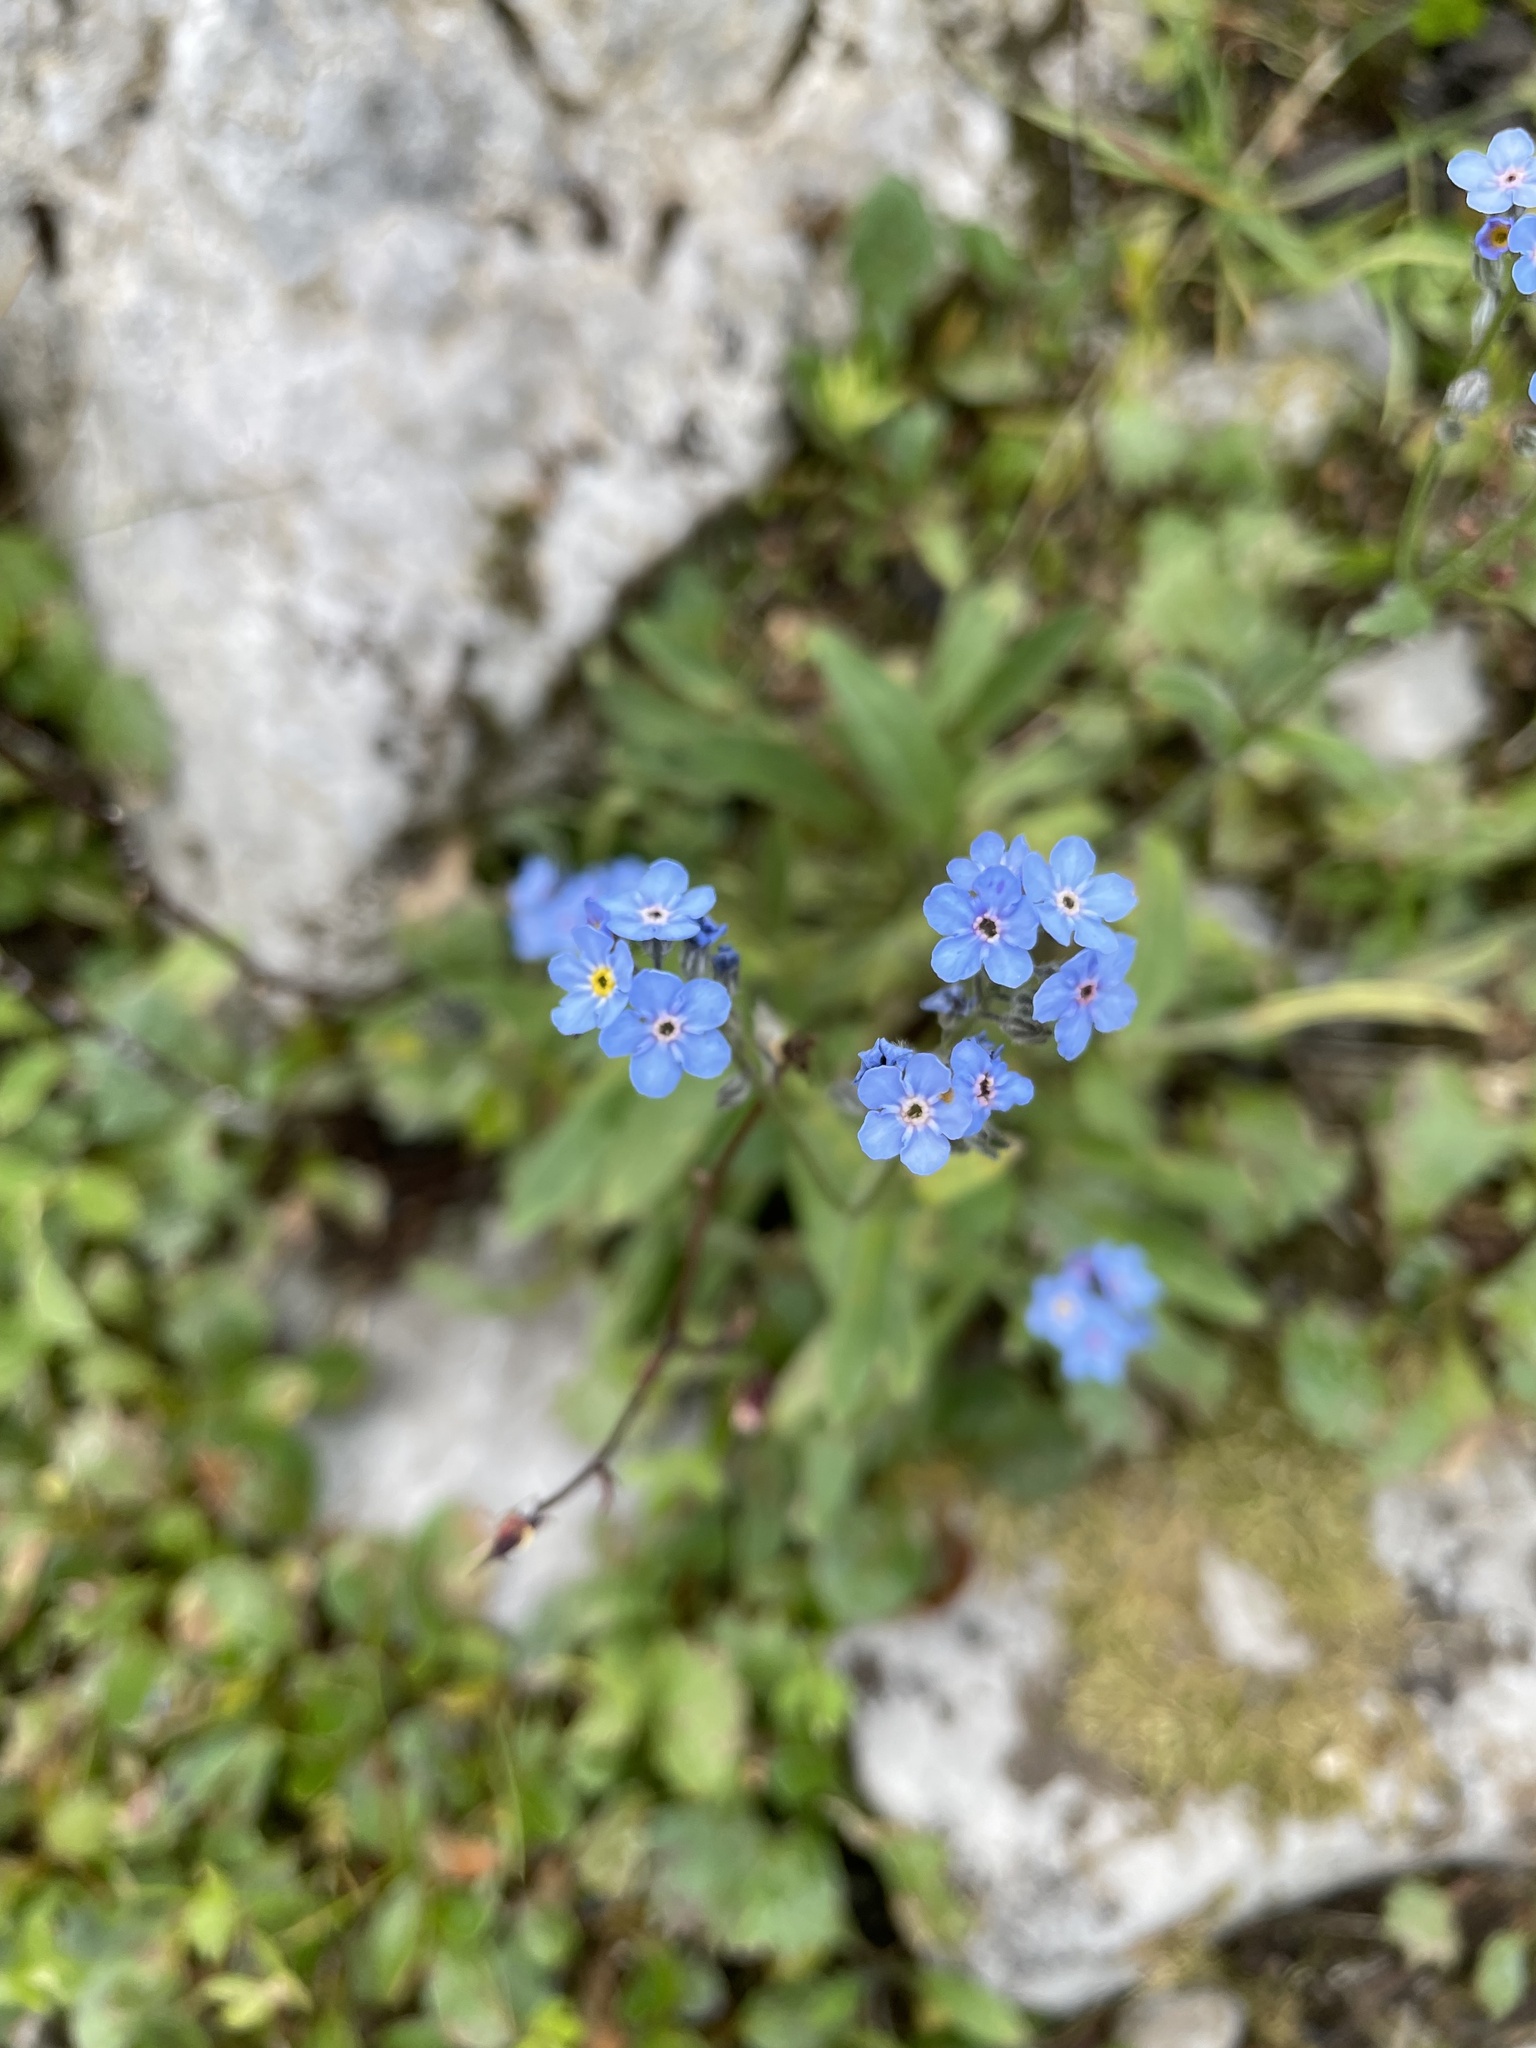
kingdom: Plantae
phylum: Tracheophyta
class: Magnoliopsida
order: Boraginales
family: Boraginaceae
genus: Myosotis
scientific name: Myosotis asiatica
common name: Asian forget-me-not
